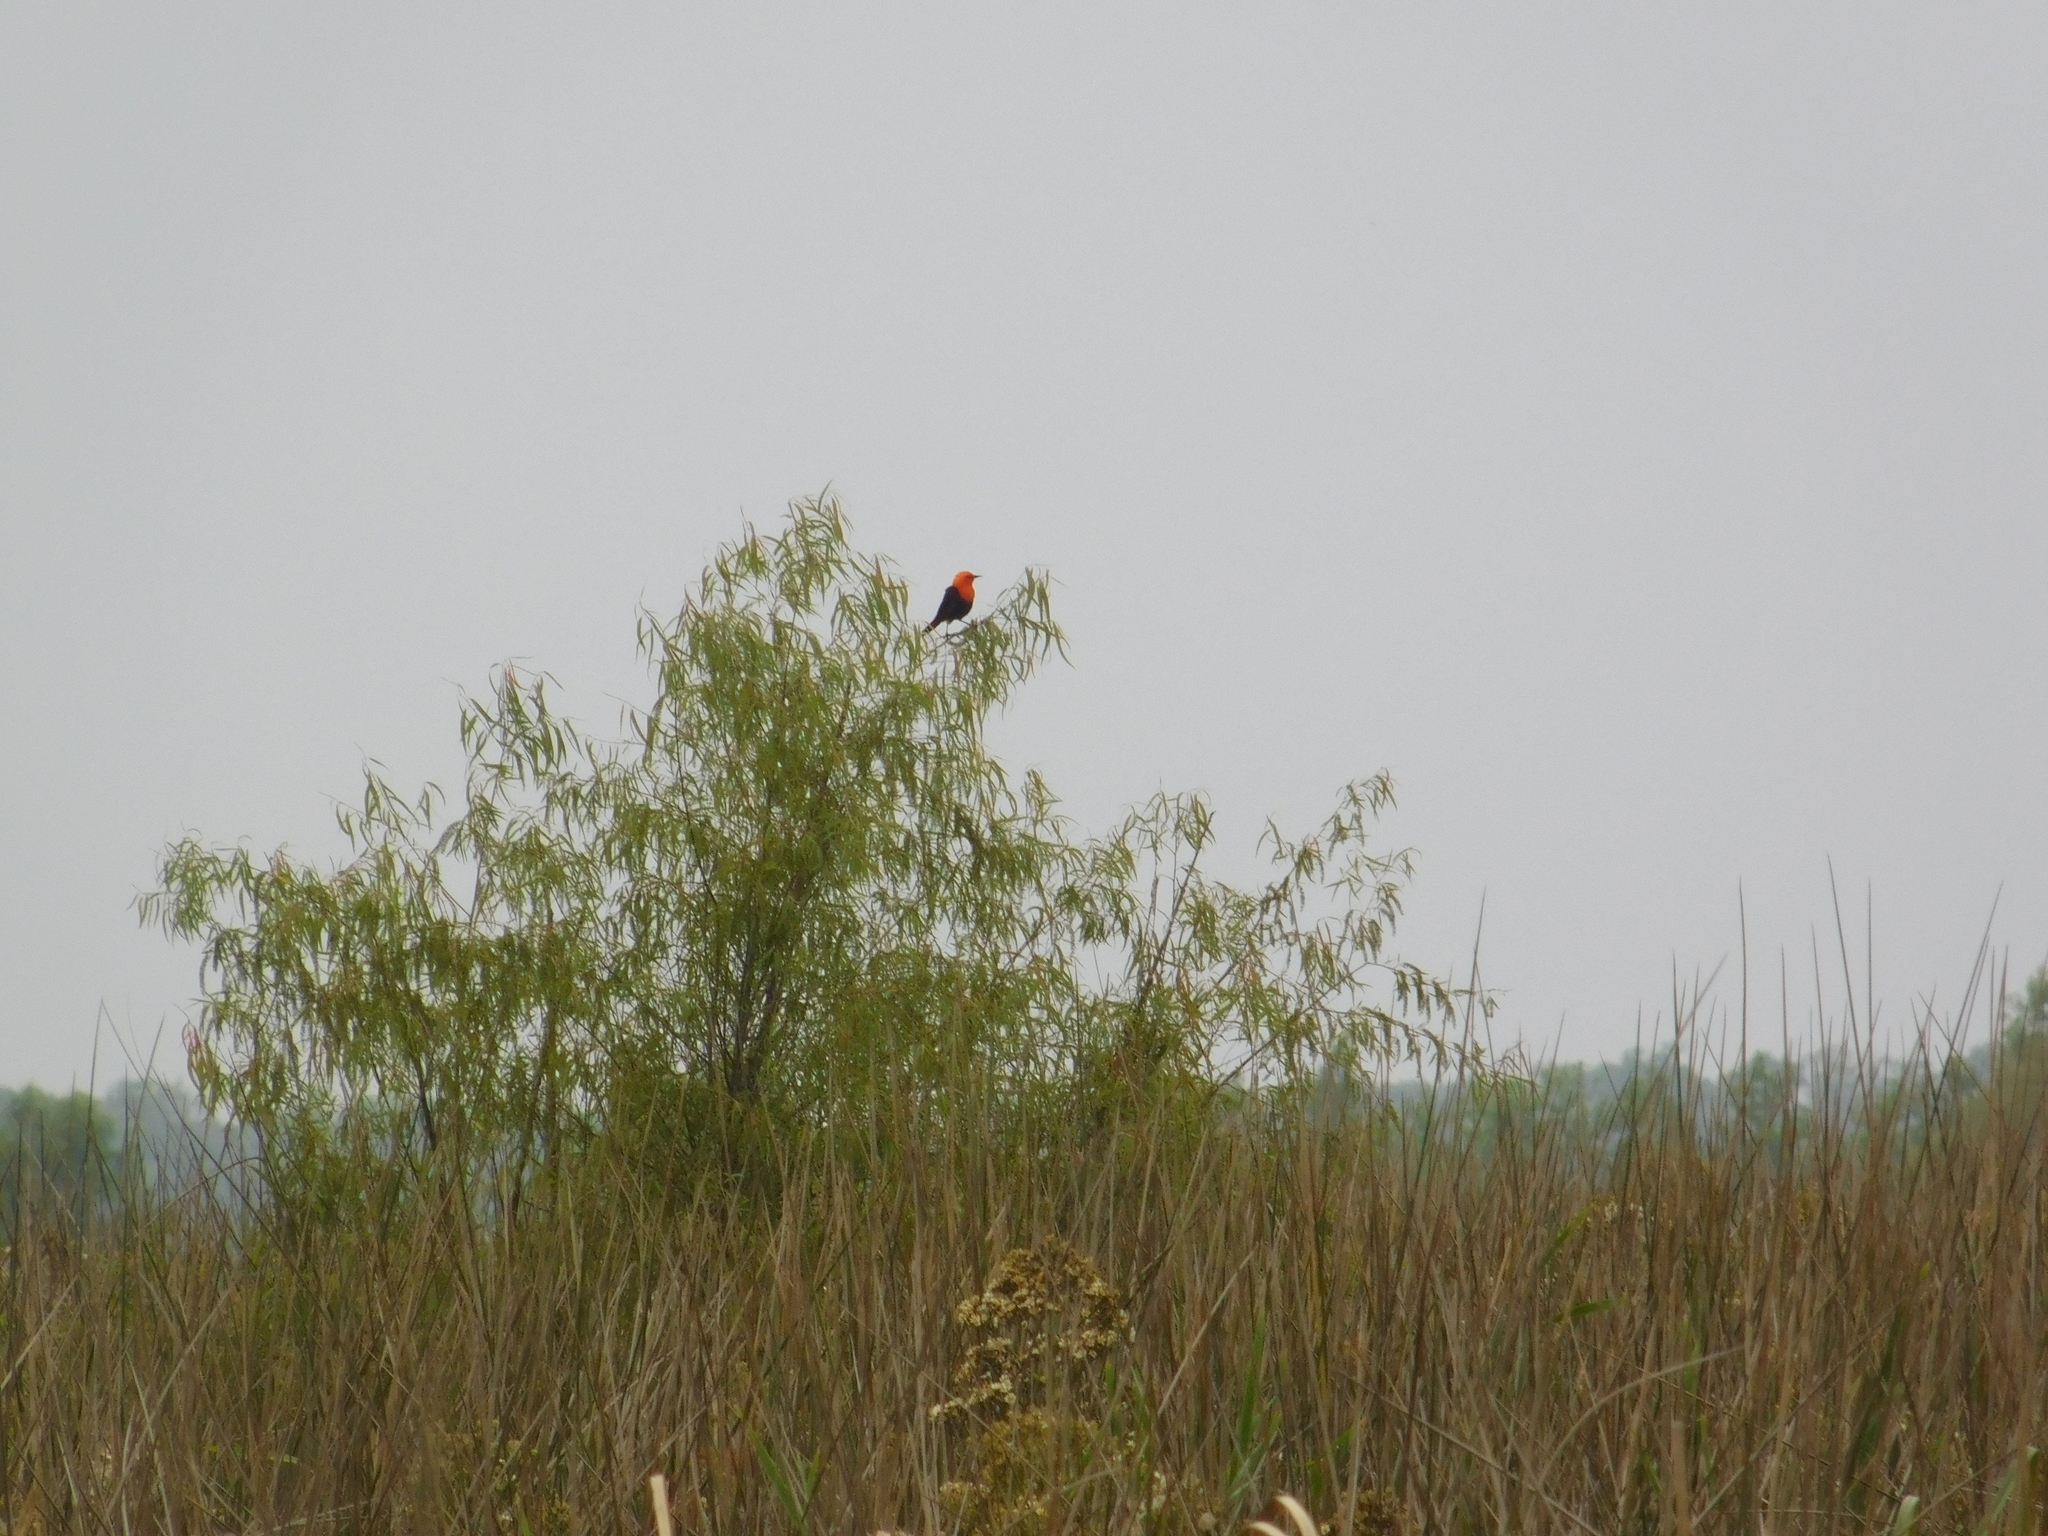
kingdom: Animalia
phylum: Chordata
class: Aves
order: Passeriformes
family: Icteridae
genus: Amblyramphus
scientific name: Amblyramphus holosericeus
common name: Scarlet-headed blackbird
